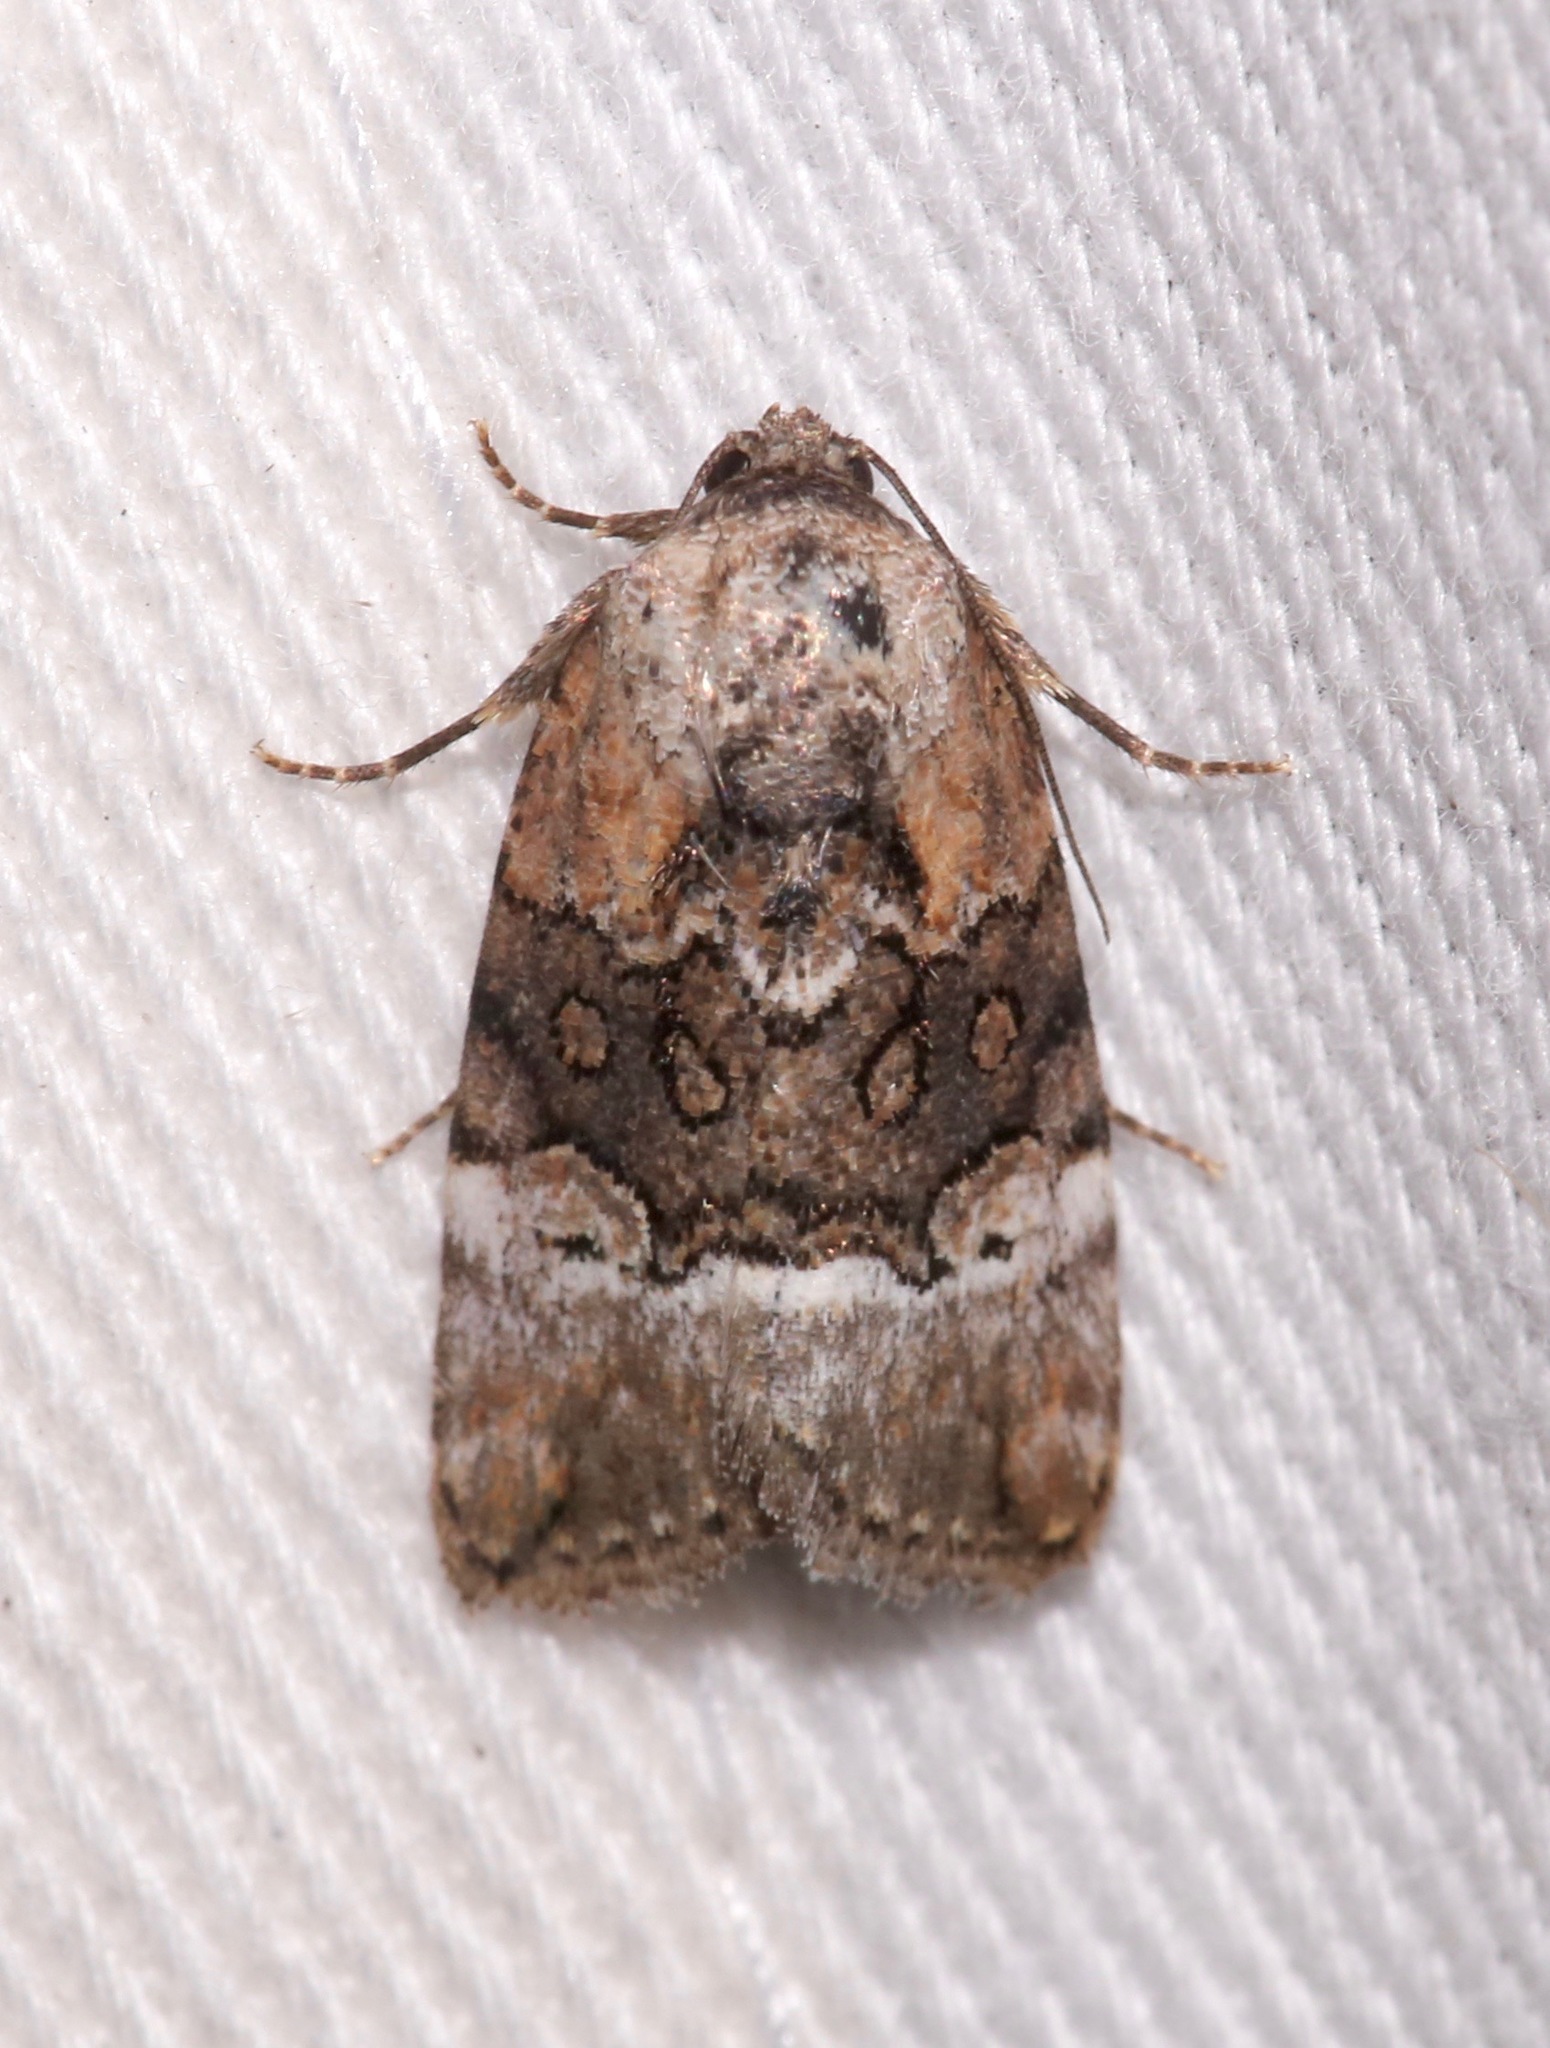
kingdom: Animalia
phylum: Arthropoda
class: Insecta
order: Lepidoptera
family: Noctuidae
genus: Elaphria
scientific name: Elaphria georgei
